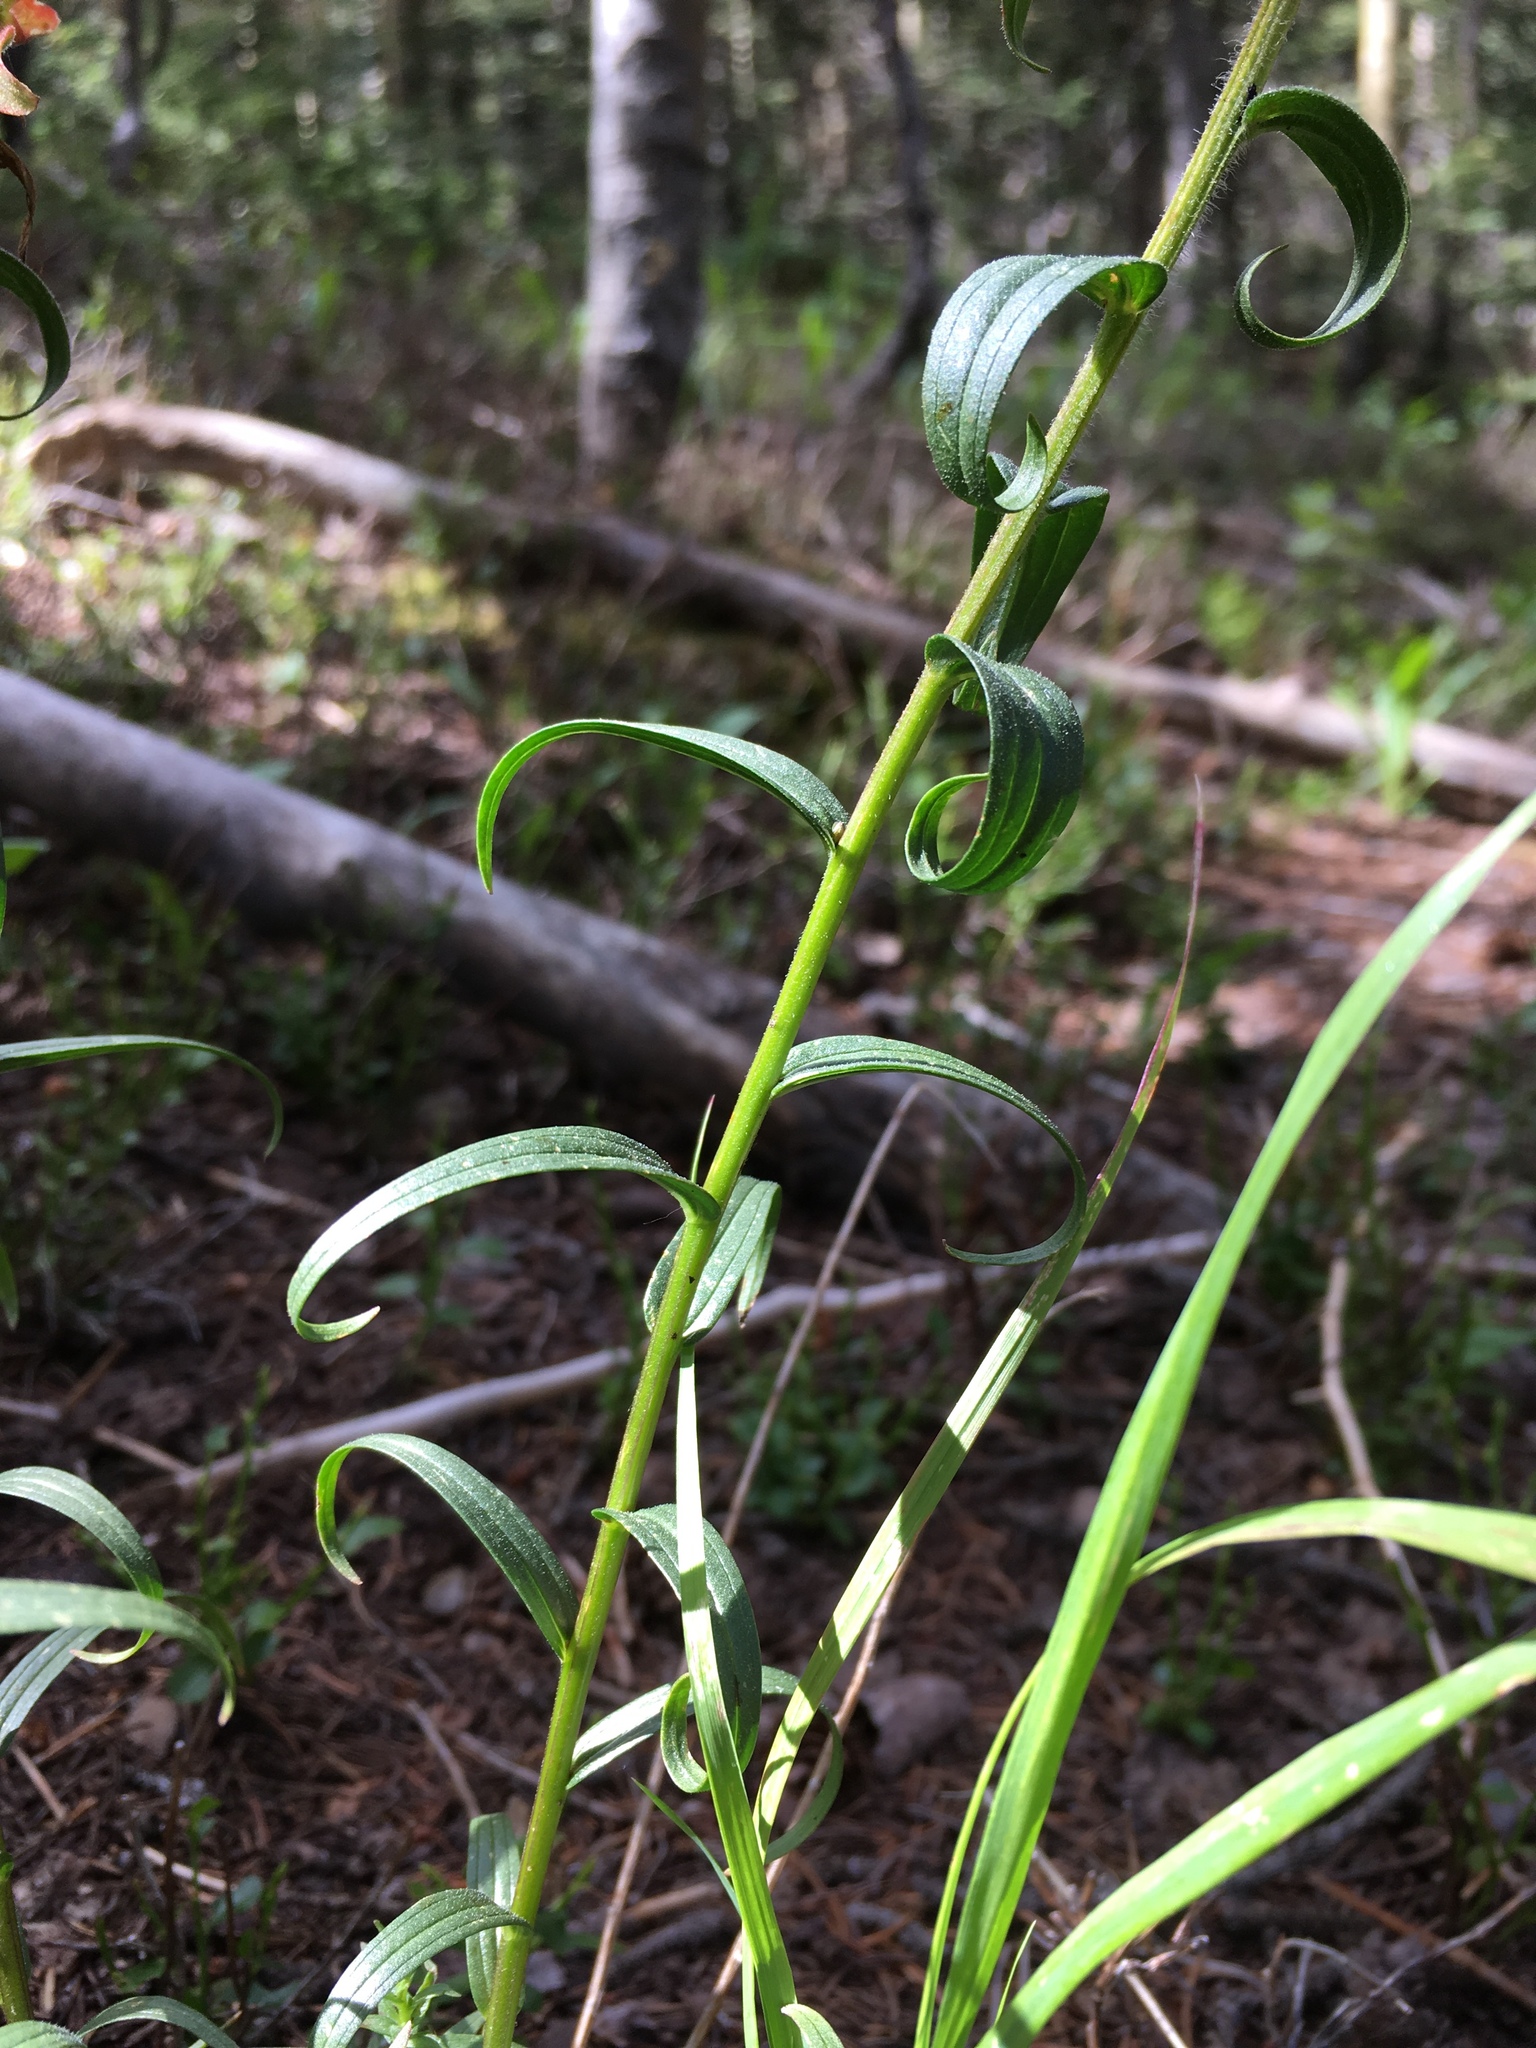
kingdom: Plantae
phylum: Tracheophyta
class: Magnoliopsida
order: Lamiales
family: Orobanchaceae
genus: Castilleja
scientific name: Castilleja miniata
